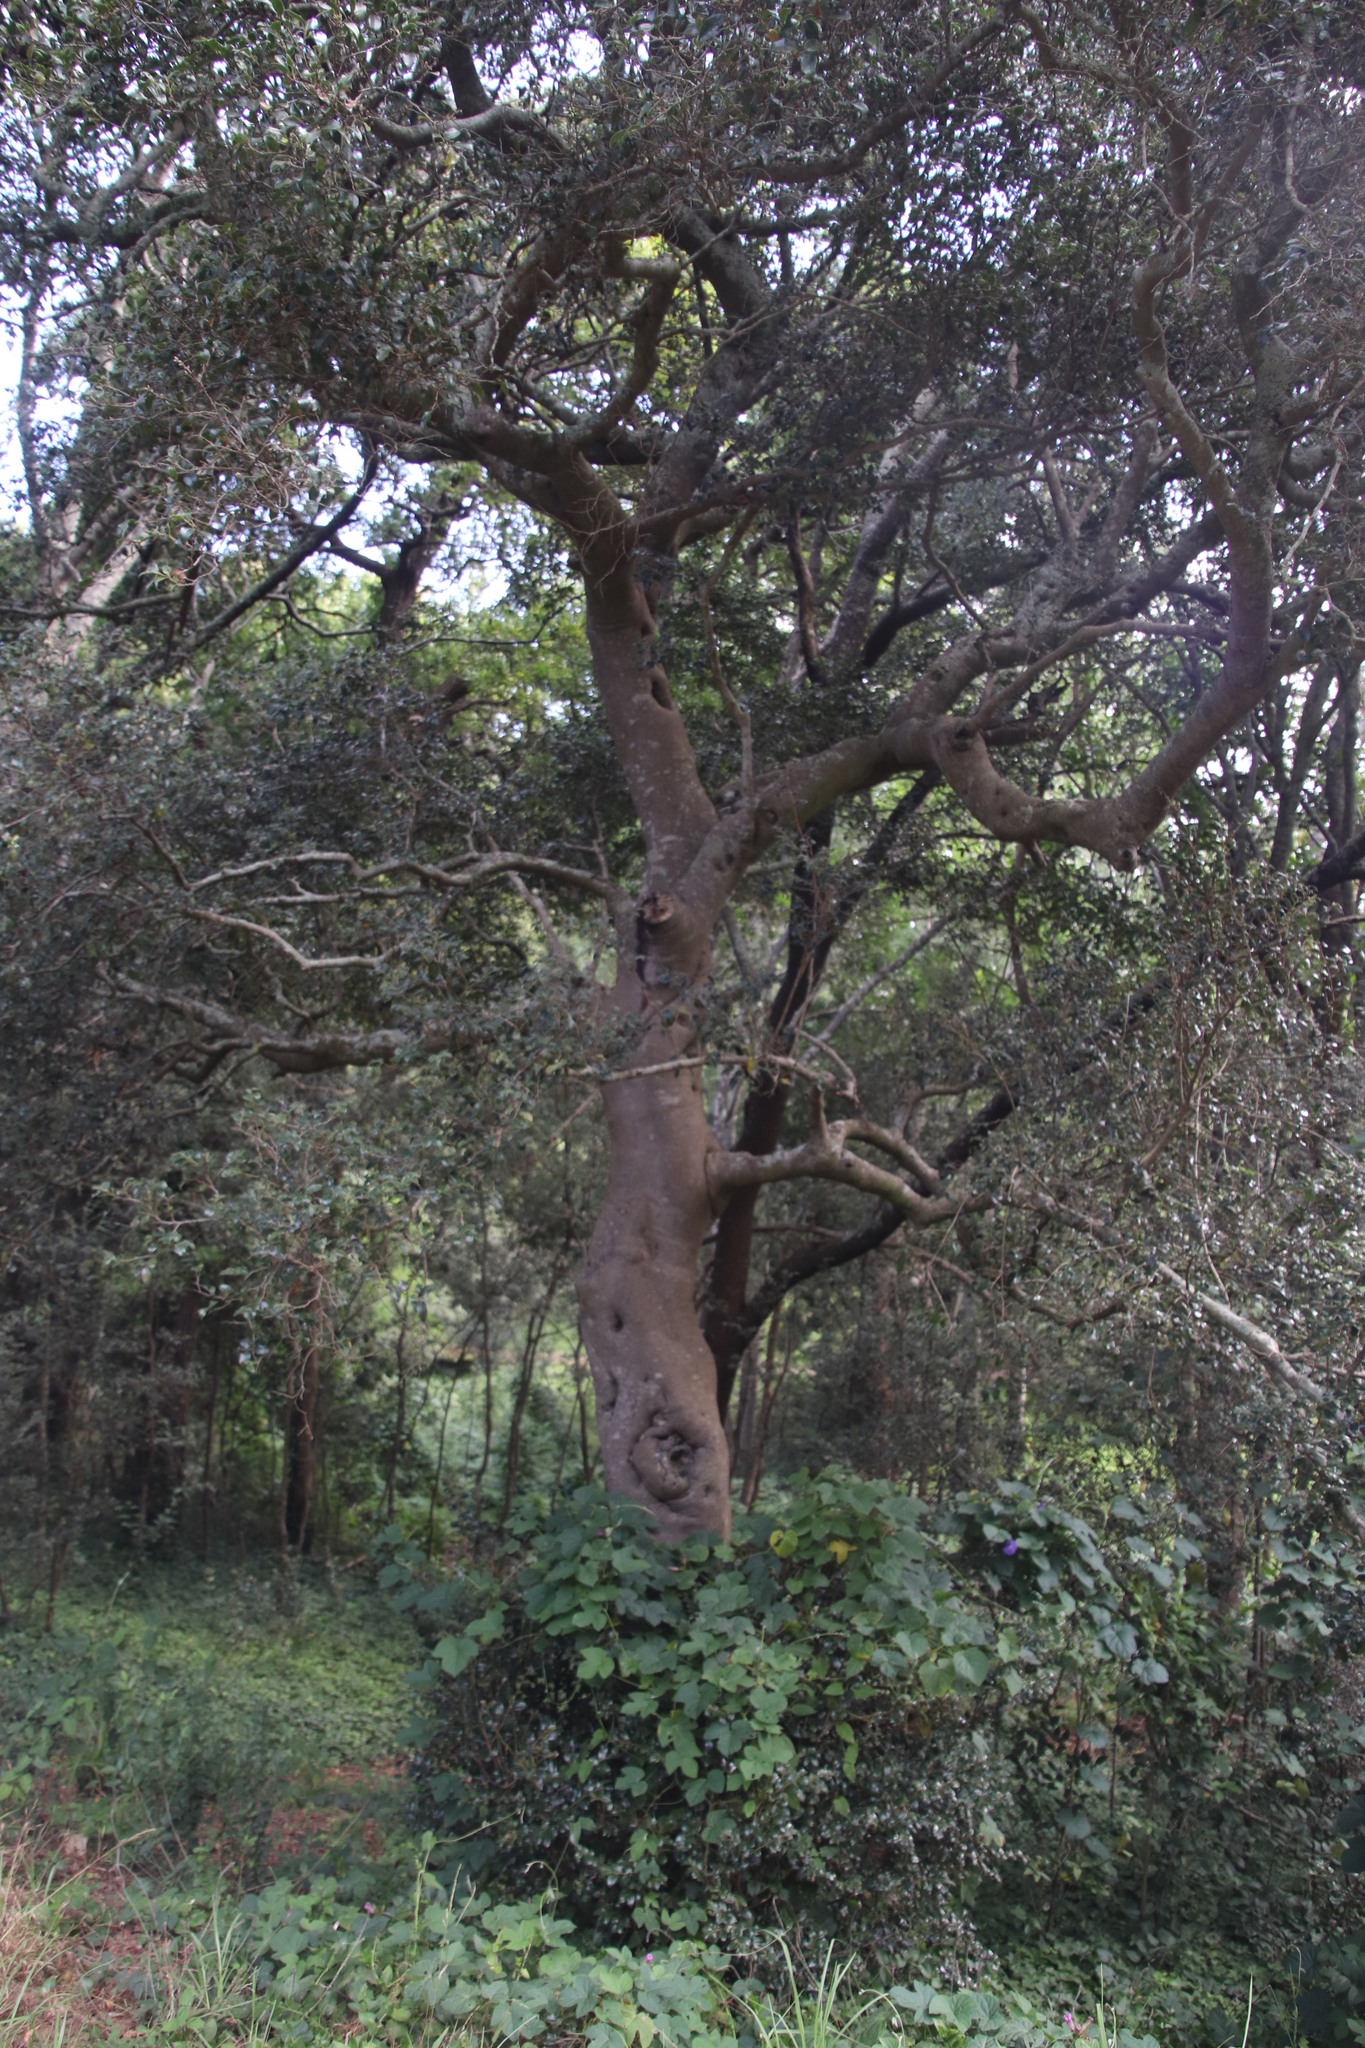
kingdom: Plantae
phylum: Tracheophyta
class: Magnoliopsida
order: Ericales
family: Ebenaceae
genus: Diospyros
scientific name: Diospyros whyteana
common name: Bladder-nut
